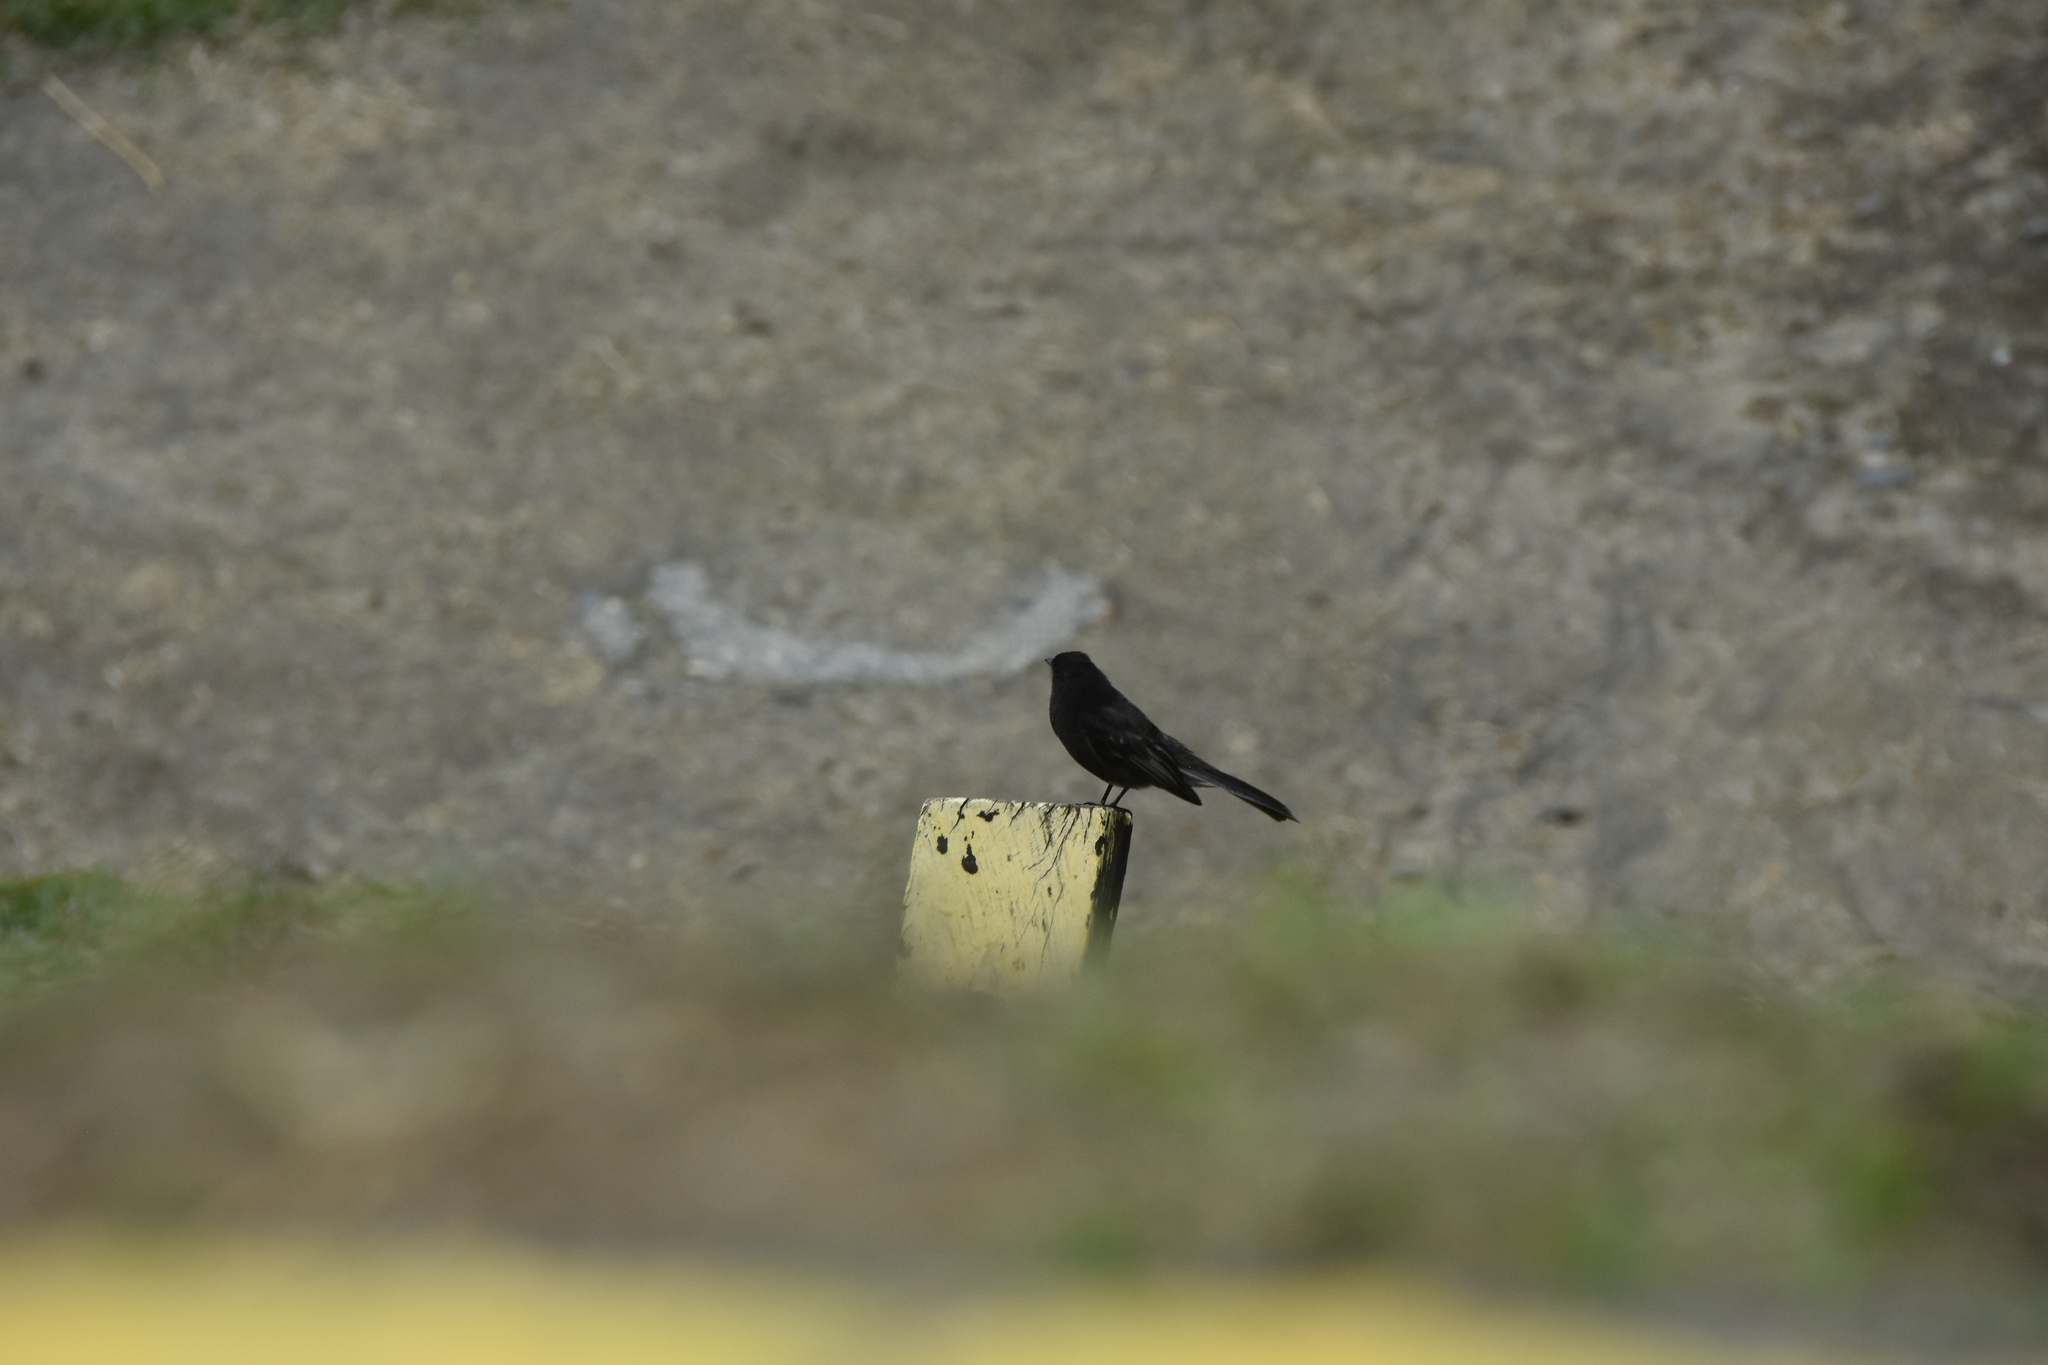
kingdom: Animalia
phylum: Chordata
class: Aves
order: Passeriformes
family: Tyrannidae
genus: Sayornis
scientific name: Sayornis nigricans
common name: Black phoebe
